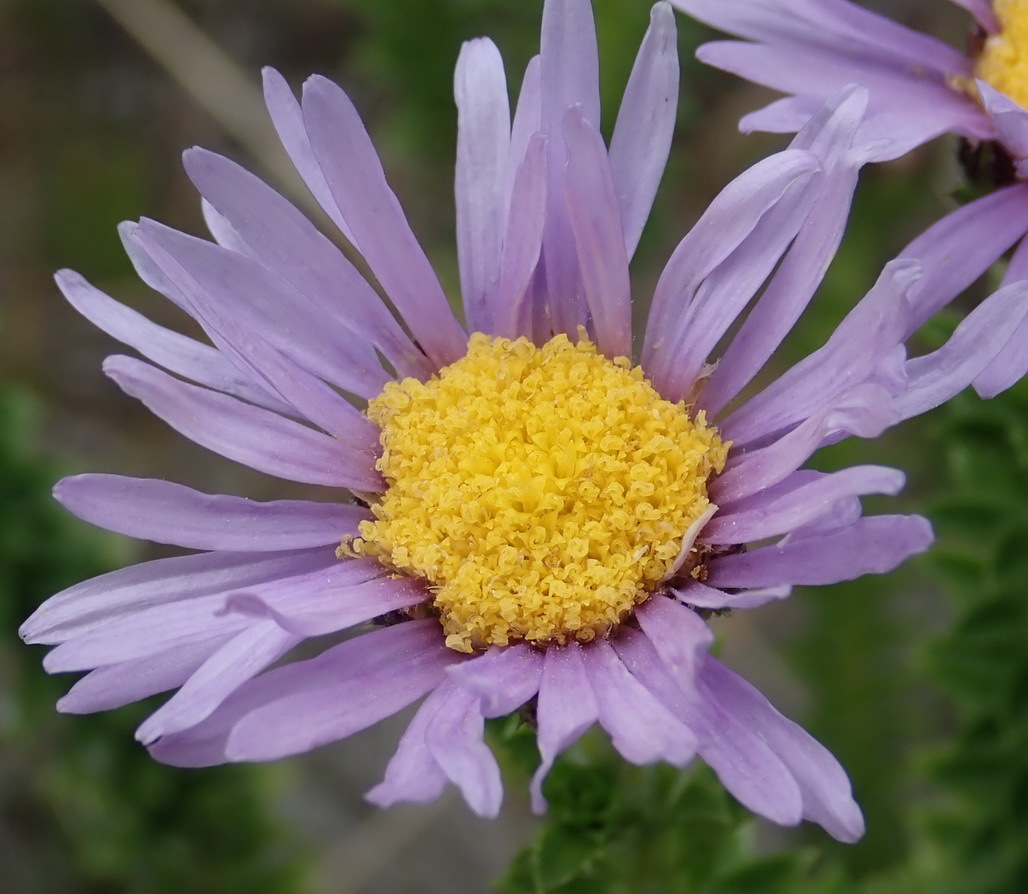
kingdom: Plantae
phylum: Tracheophyta
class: Magnoliopsida
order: Asterales
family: Asteraceae
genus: Felicia
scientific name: Felicia echinata
